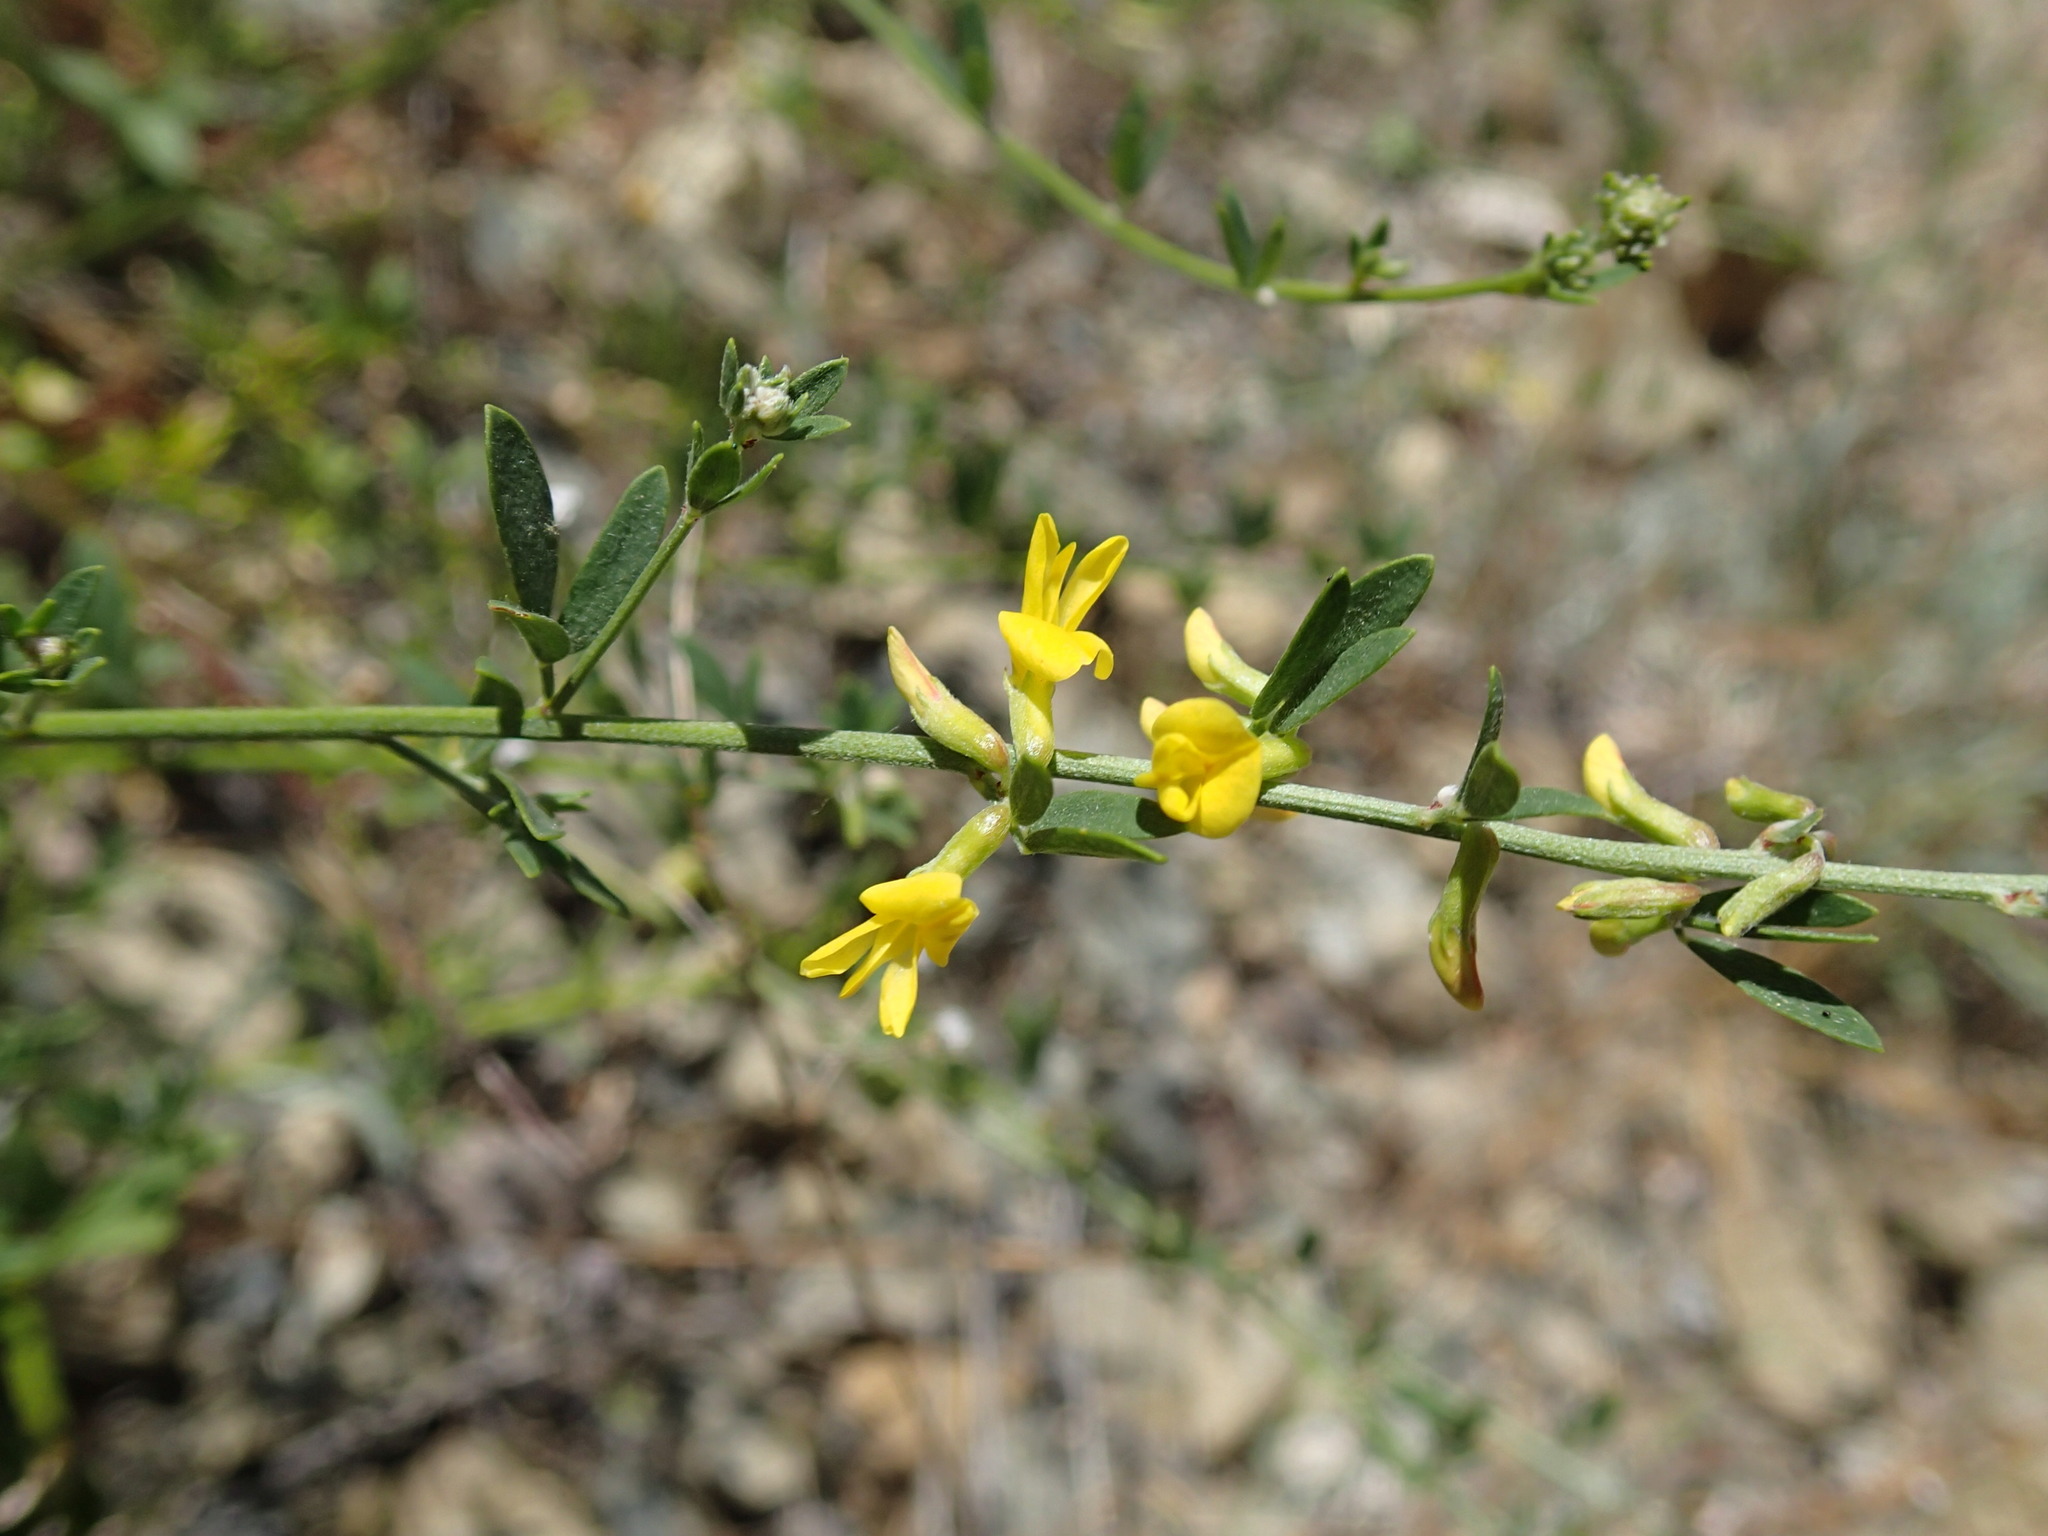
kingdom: Plantae
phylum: Tracheophyta
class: Magnoliopsida
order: Fabales
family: Fabaceae
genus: Acmispon
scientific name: Acmispon glaber
